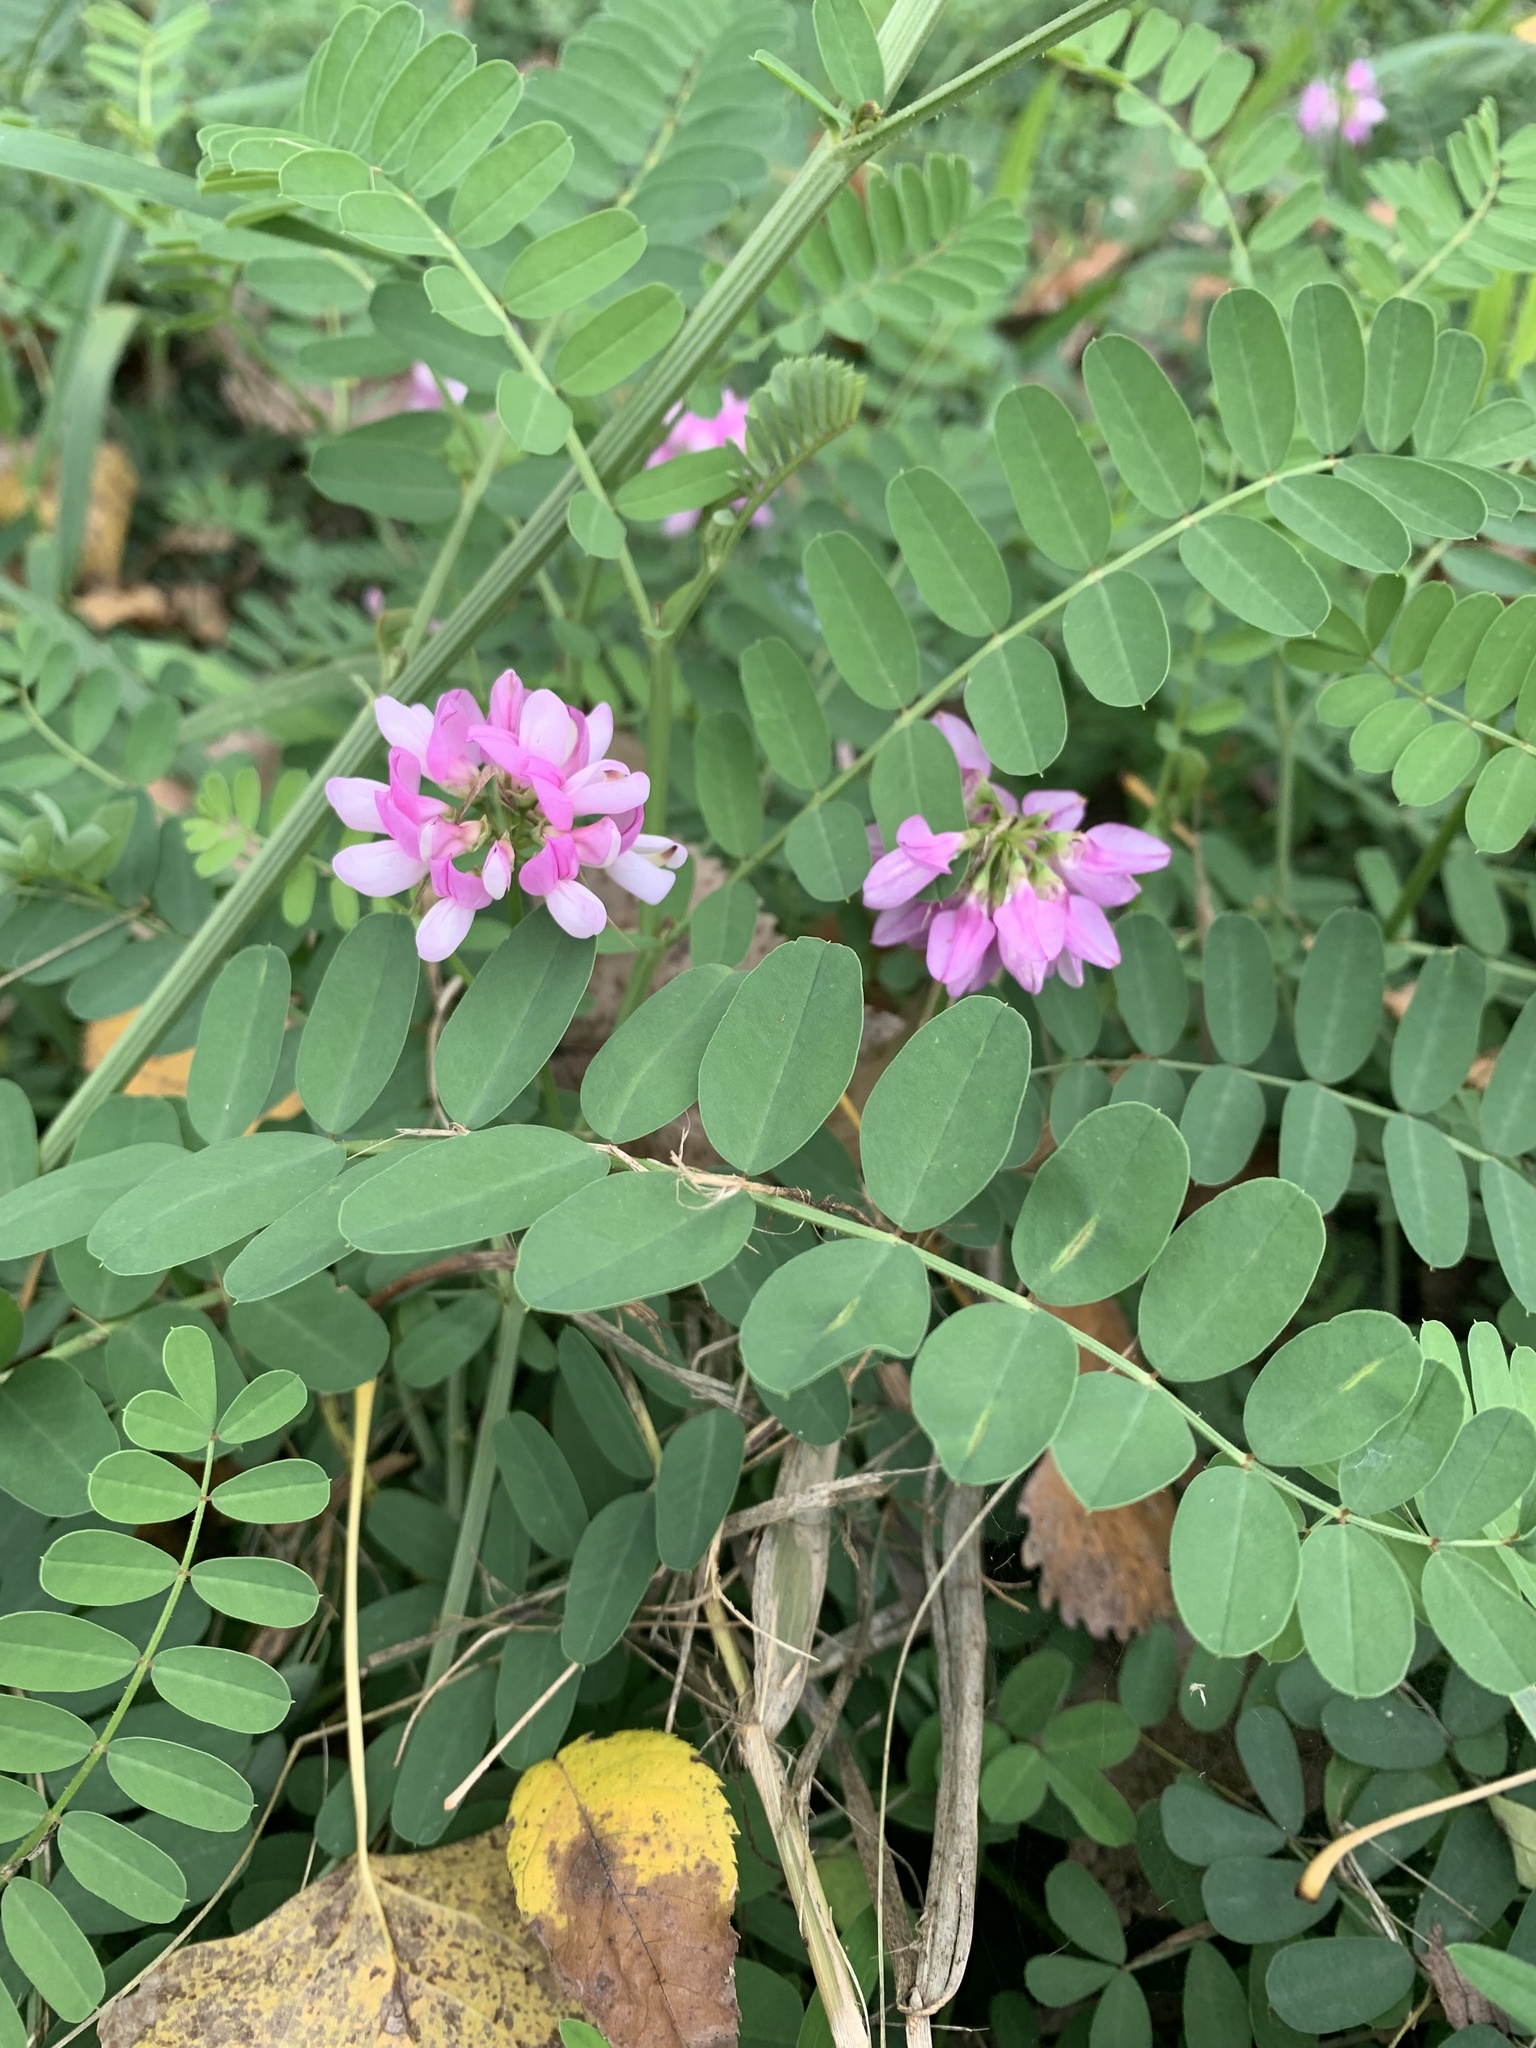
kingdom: Plantae
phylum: Tracheophyta
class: Magnoliopsida
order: Fabales
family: Fabaceae
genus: Coronilla
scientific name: Coronilla varia
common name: Crownvetch
